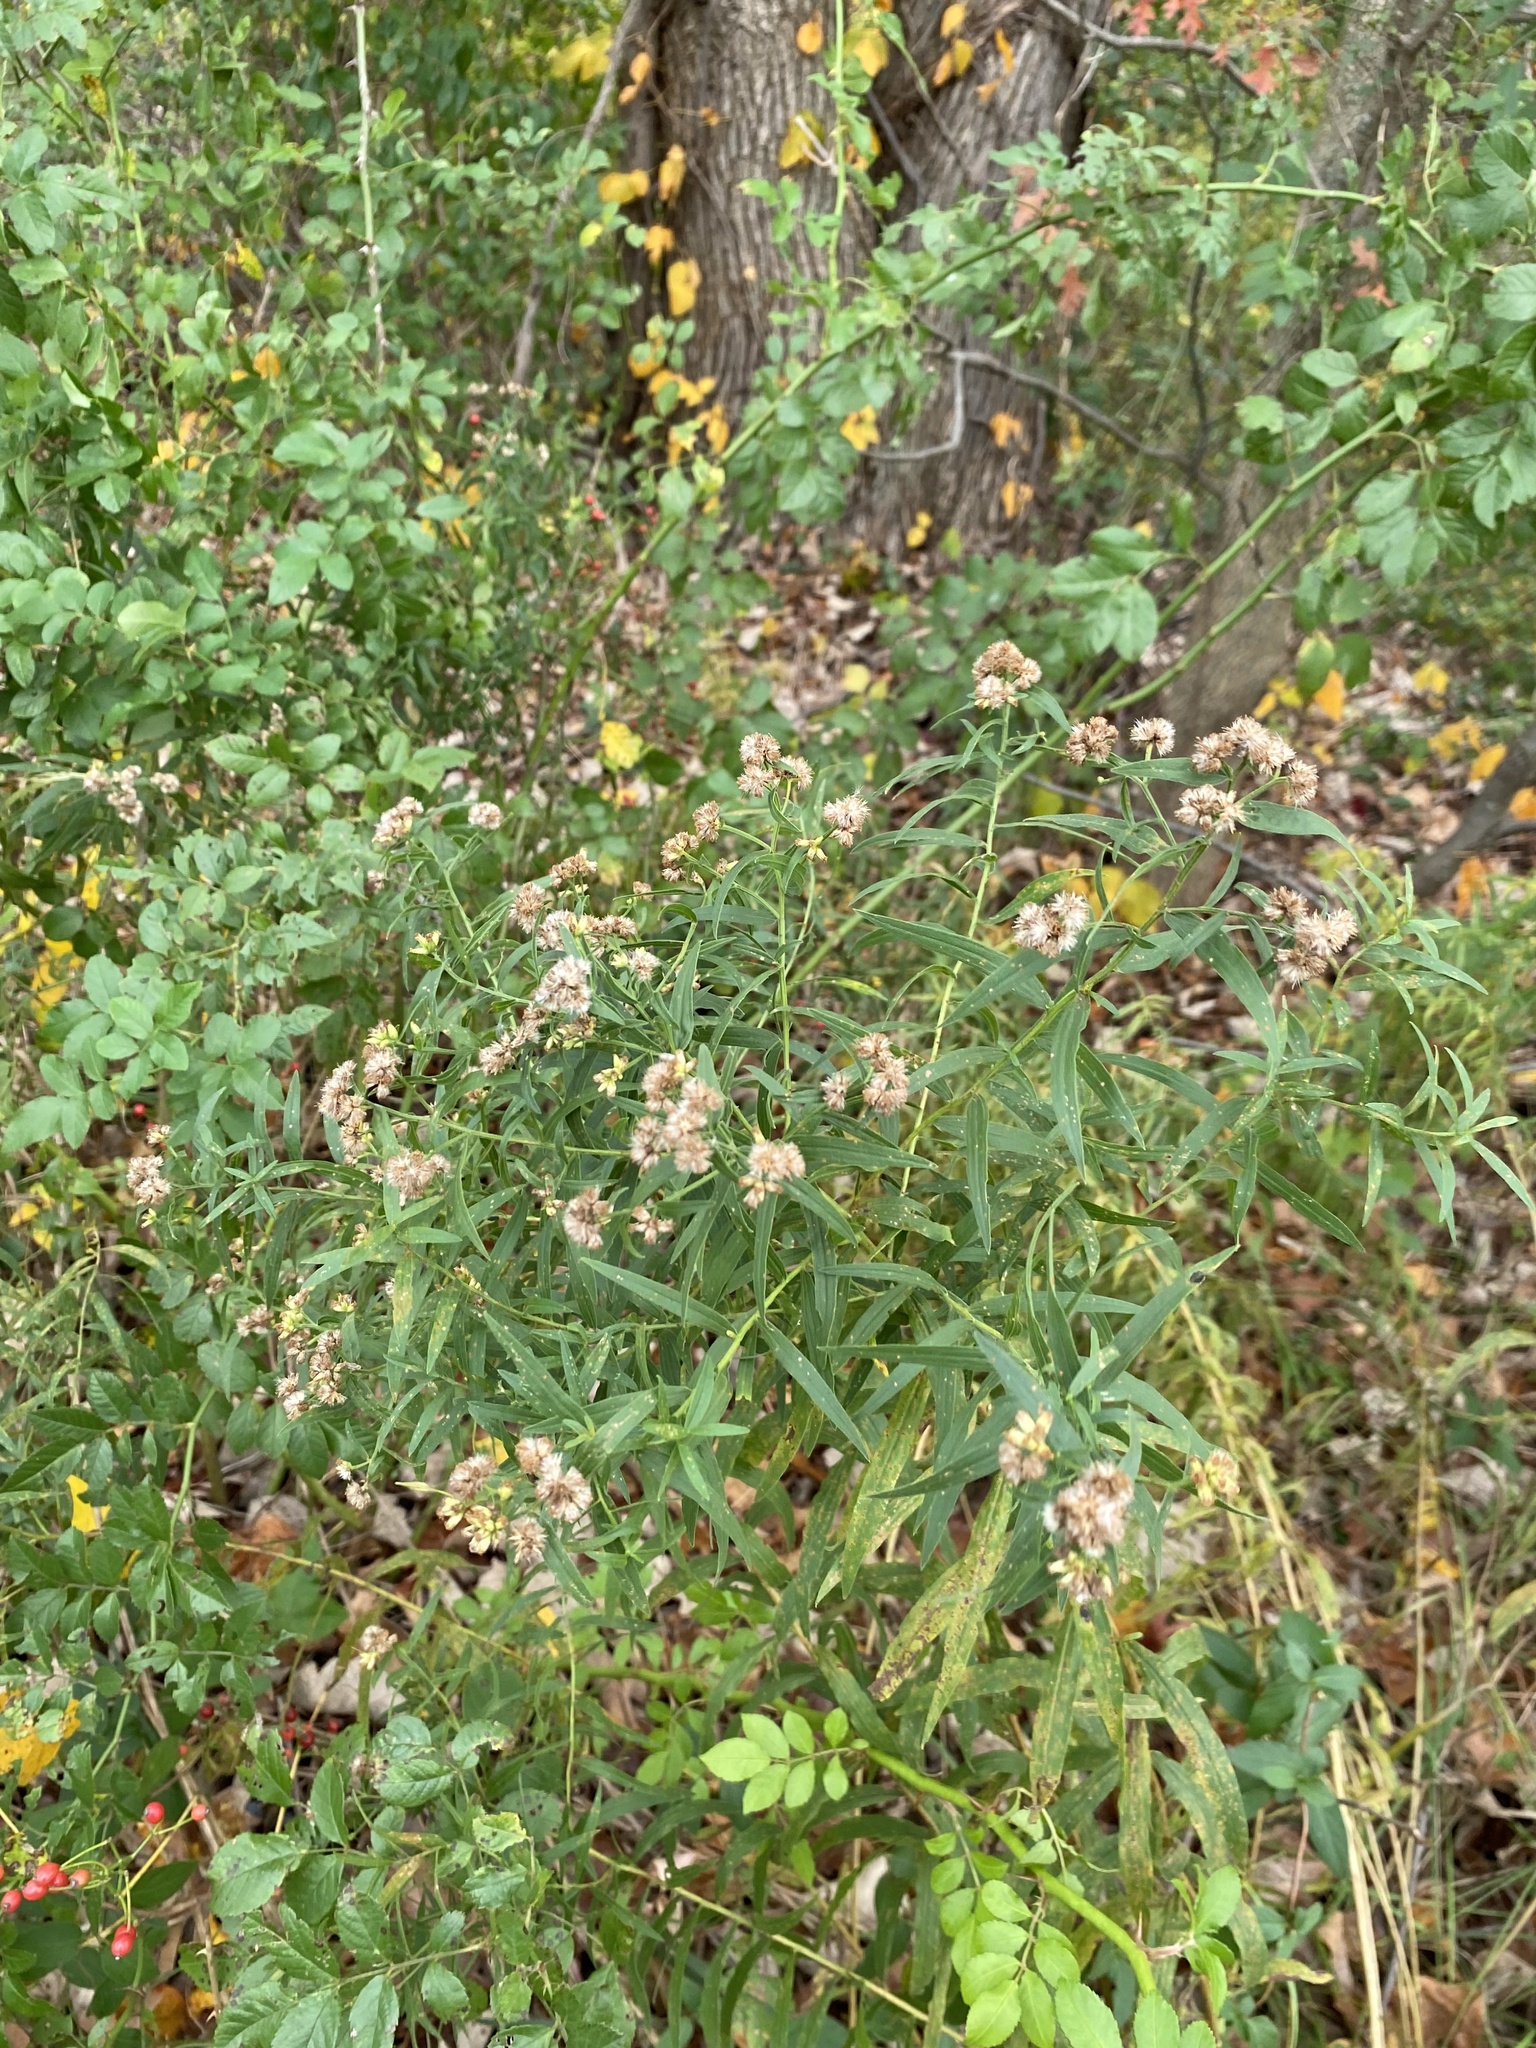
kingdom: Plantae
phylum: Tracheophyta
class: Magnoliopsida
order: Asterales
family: Asteraceae
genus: Euthamia
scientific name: Euthamia graminifolia
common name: Common goldentop
